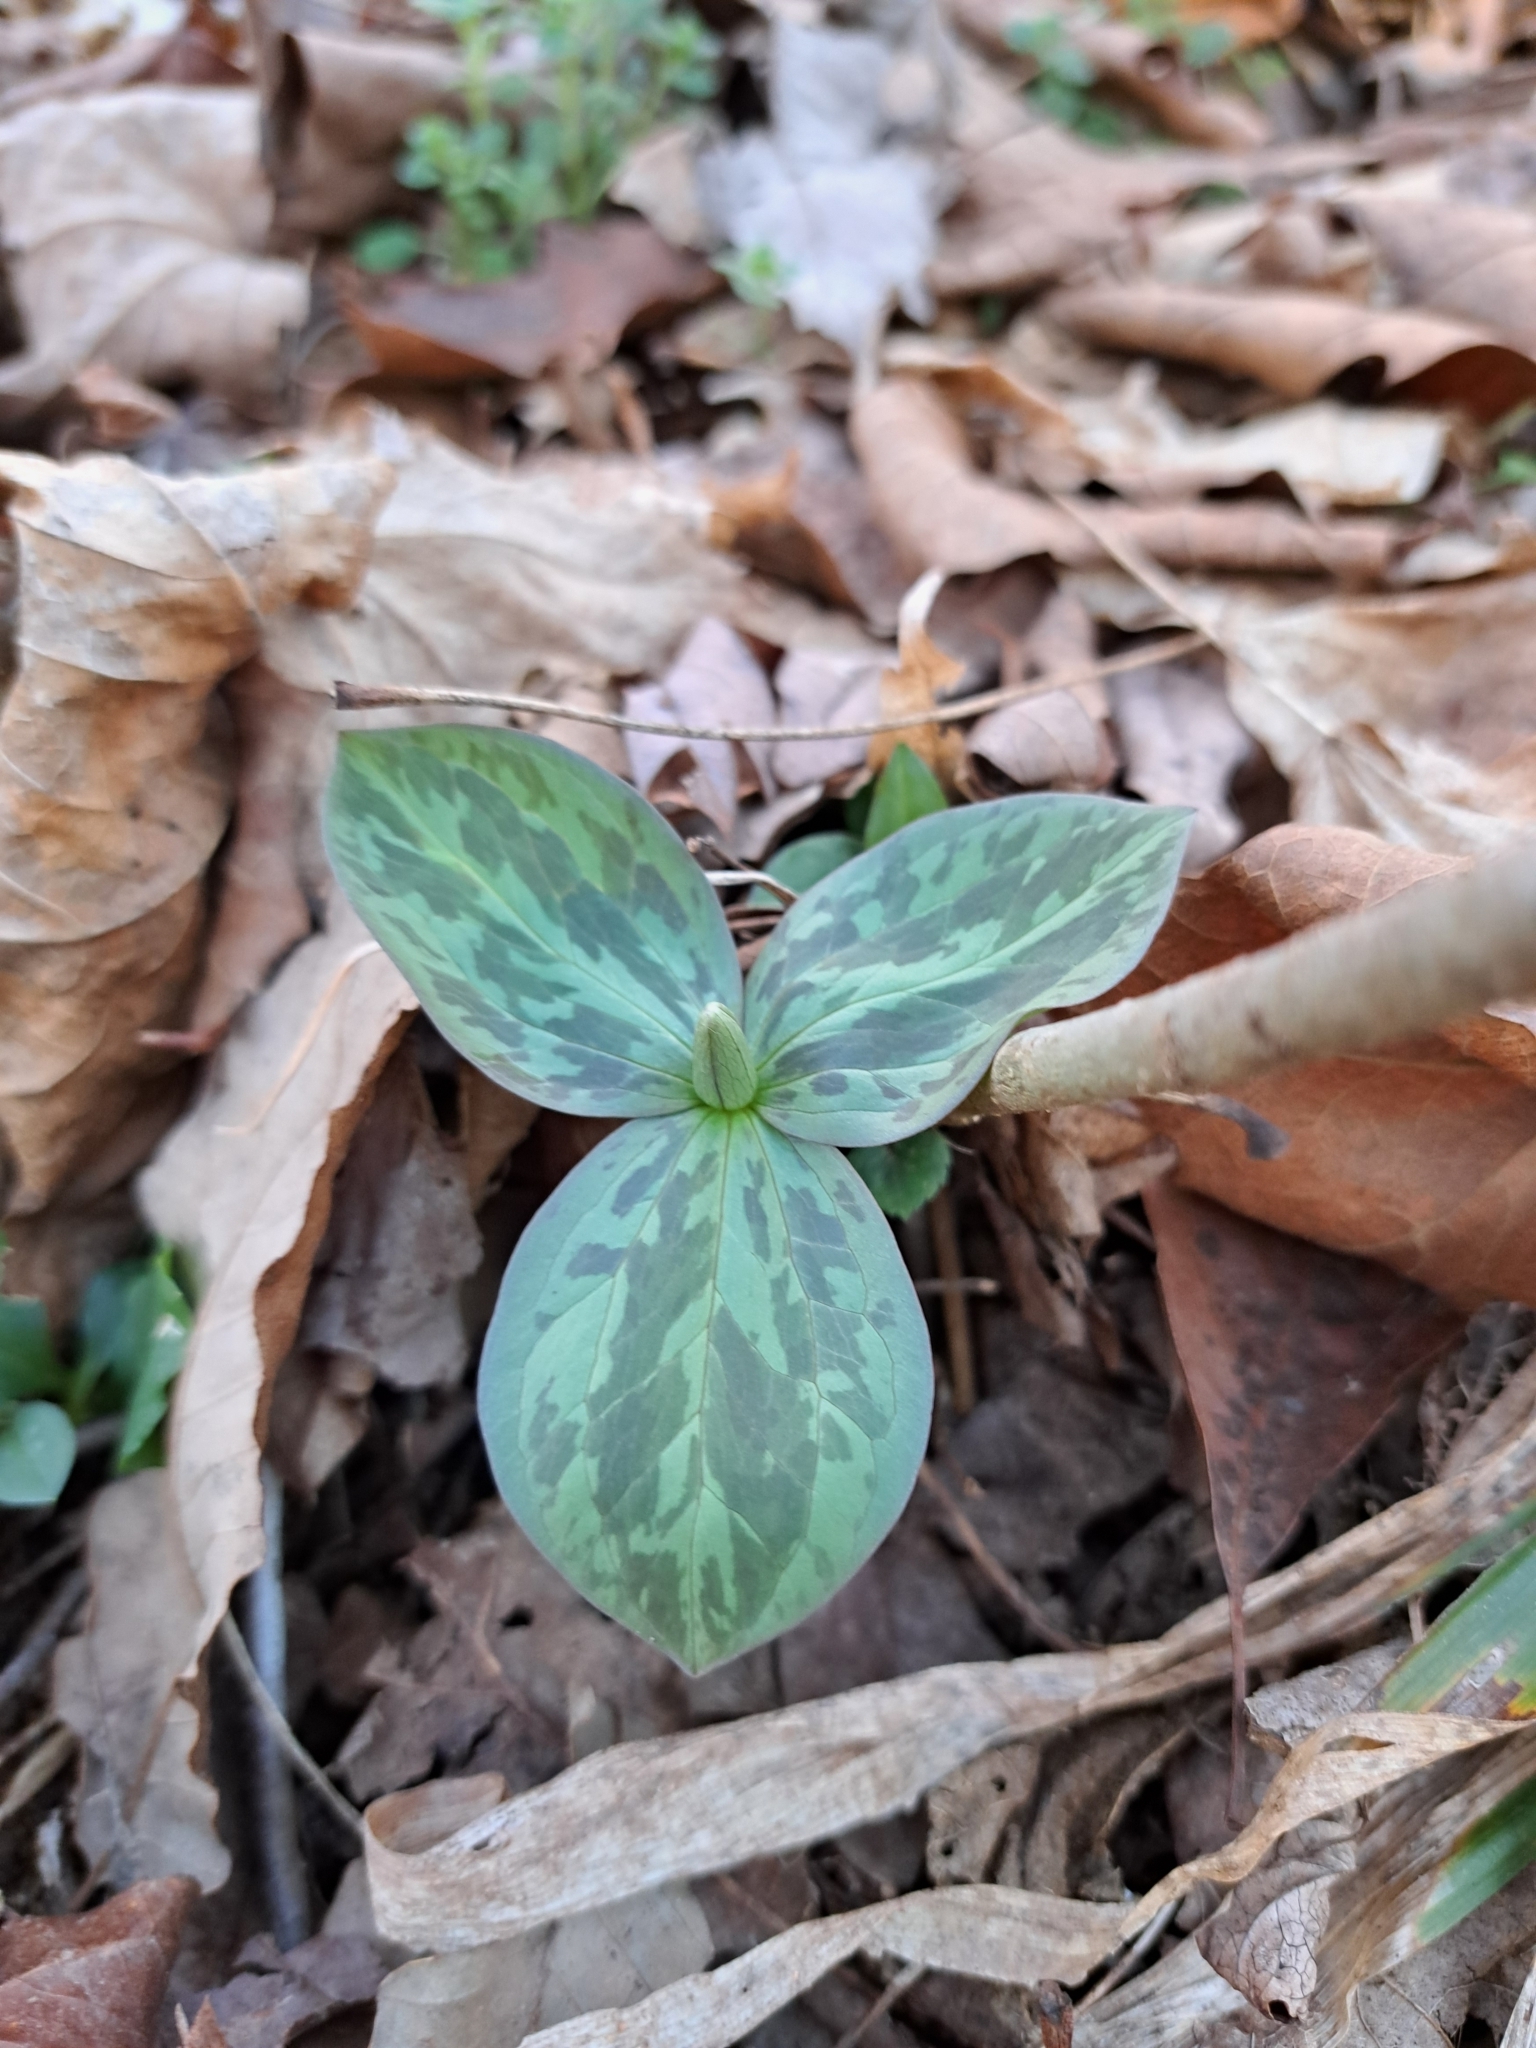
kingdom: Plantae
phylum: Tracheophyta
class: Liliopsida
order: Liliales
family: Melanthiaceae
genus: Trillium
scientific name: Trillium sessile
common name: Sessile trillium
